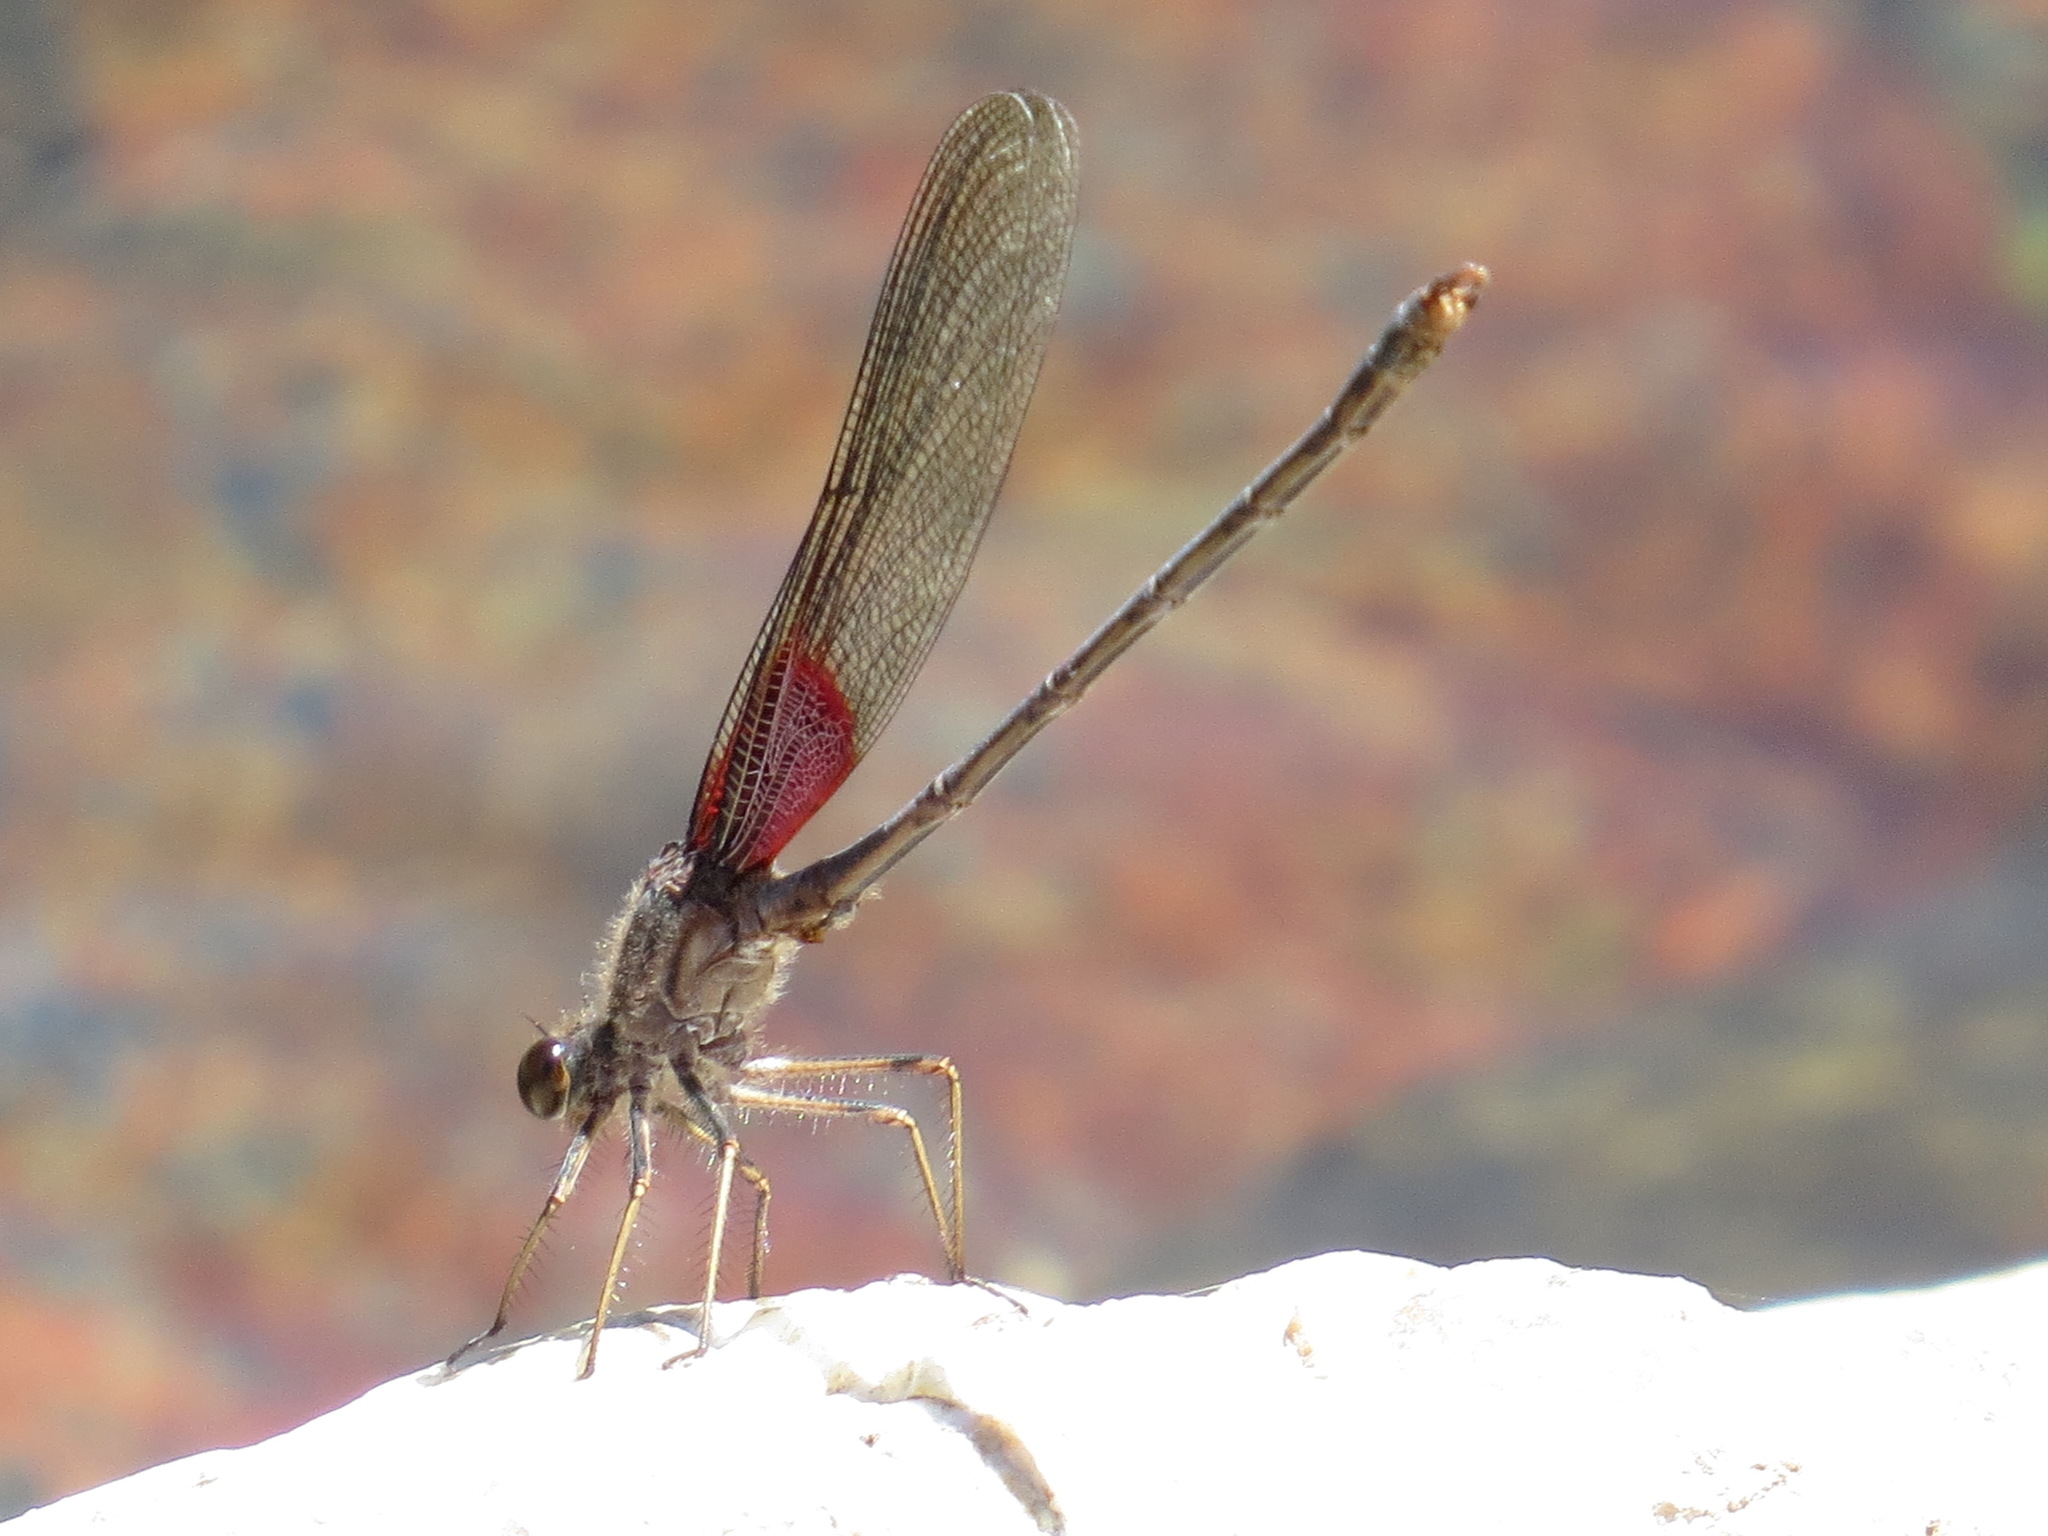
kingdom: Animalia
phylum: Arthropoda
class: Insecta
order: Odonata
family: Calopterygidae
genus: Hetaerina
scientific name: Hetaerina americana
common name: American rubyspot
